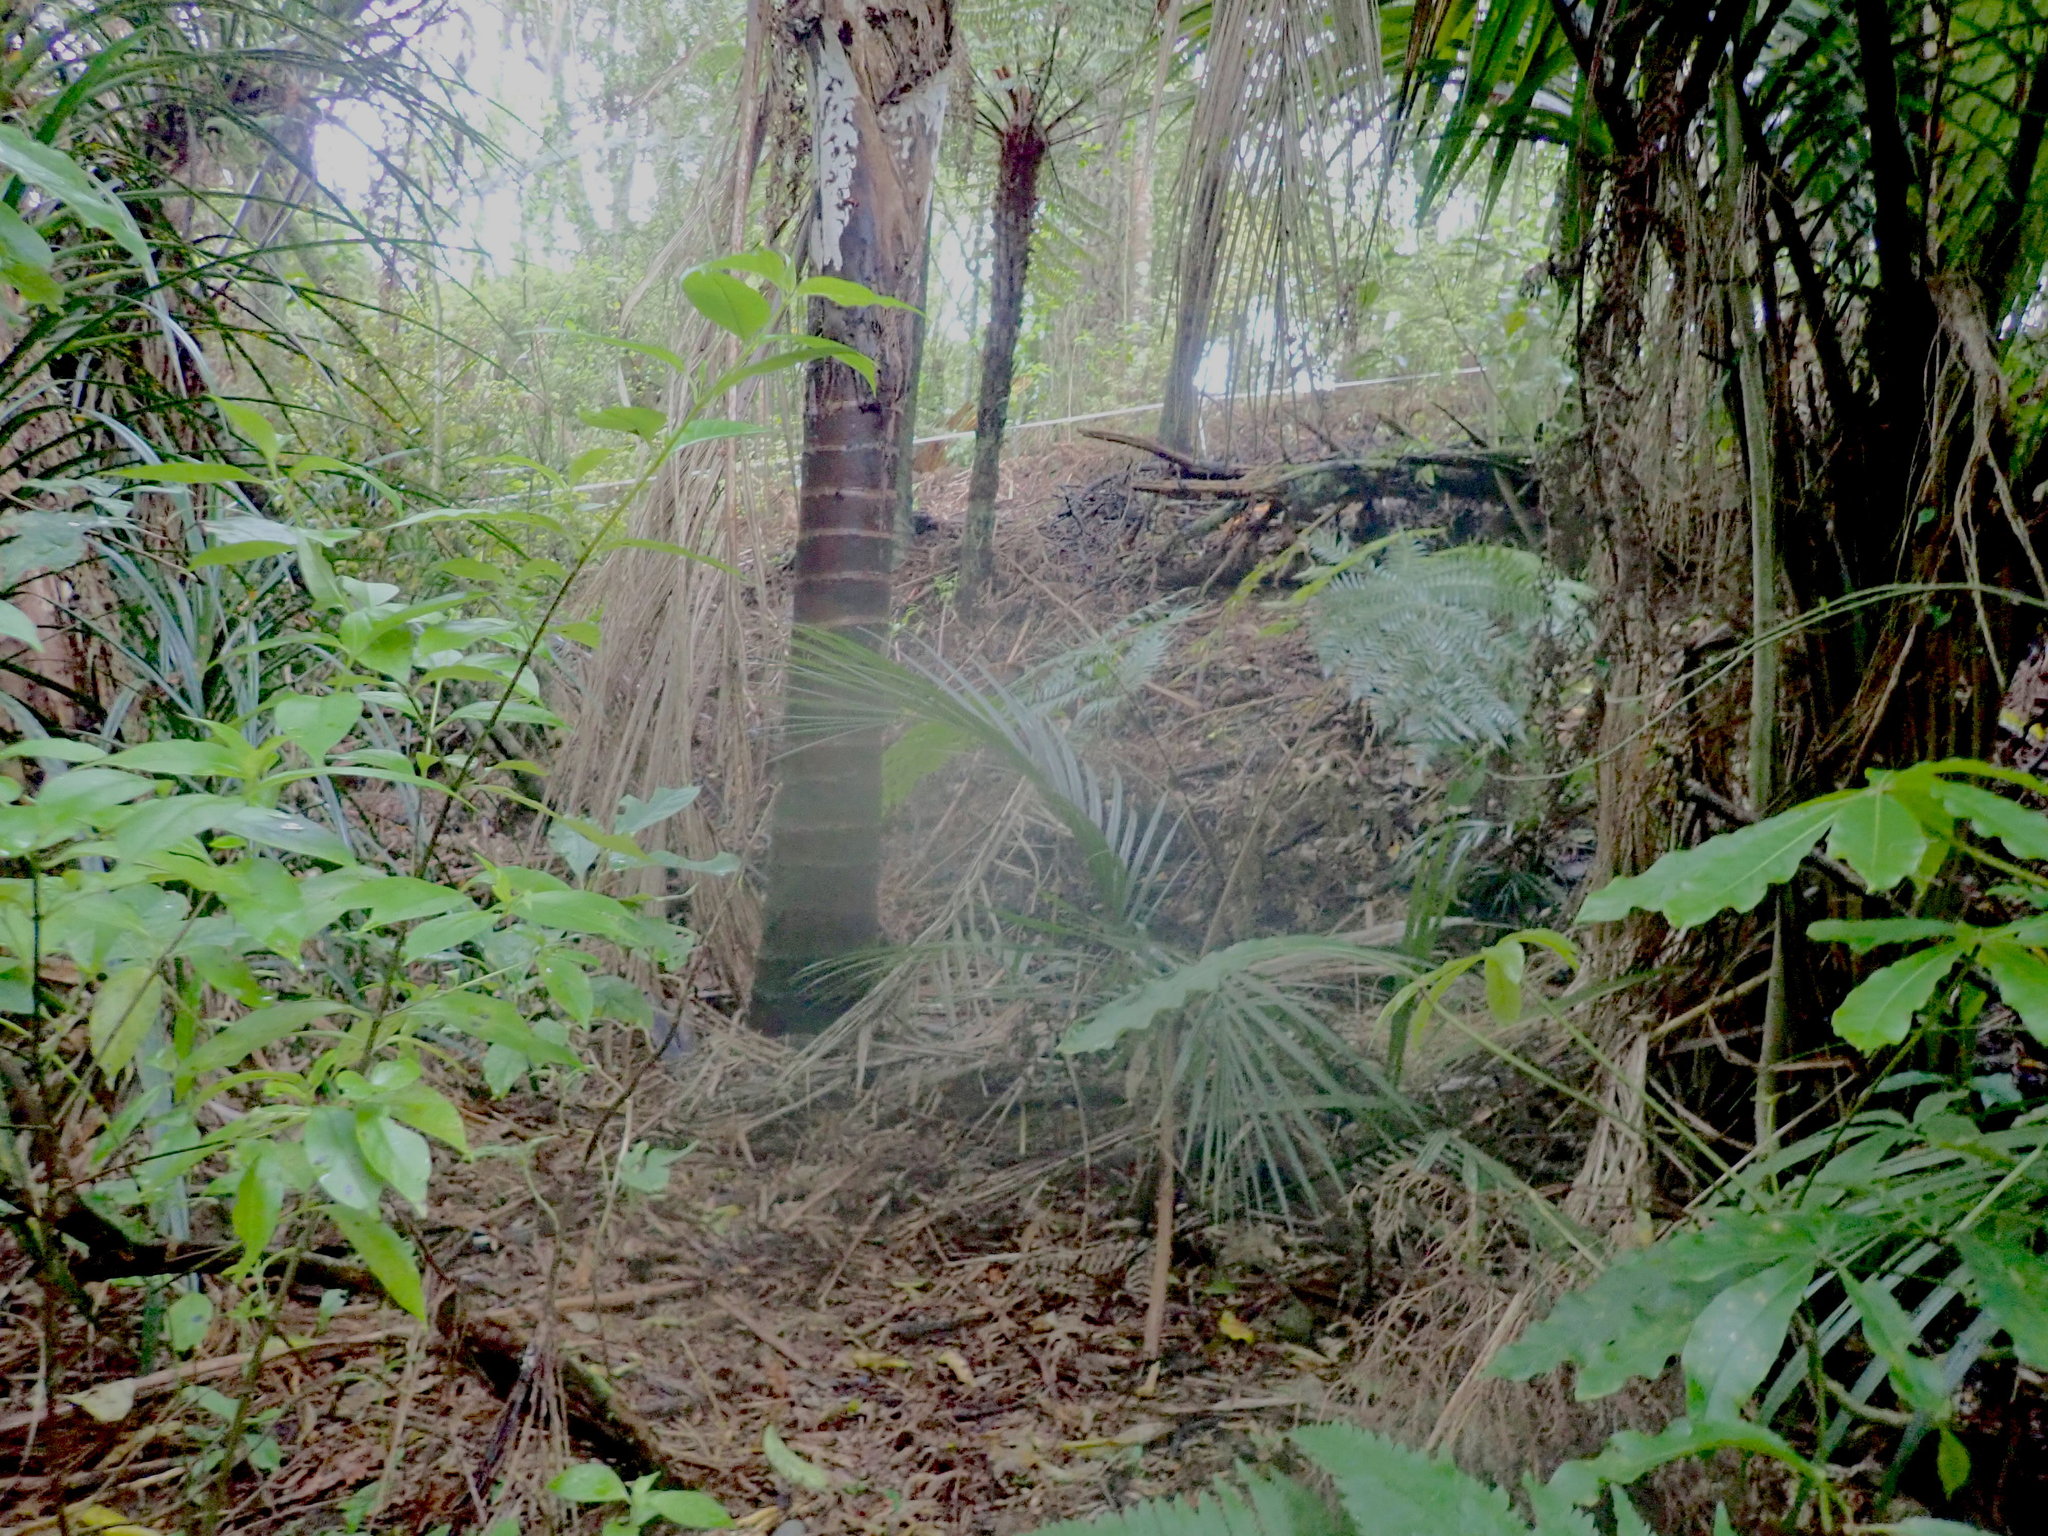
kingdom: Plantae
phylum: Tracheophyta
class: Liliopsida
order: Arecales
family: Arecaceae
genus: Rhopalostylis
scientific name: Rhopalostylis sapida
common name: Feather-duster palm
